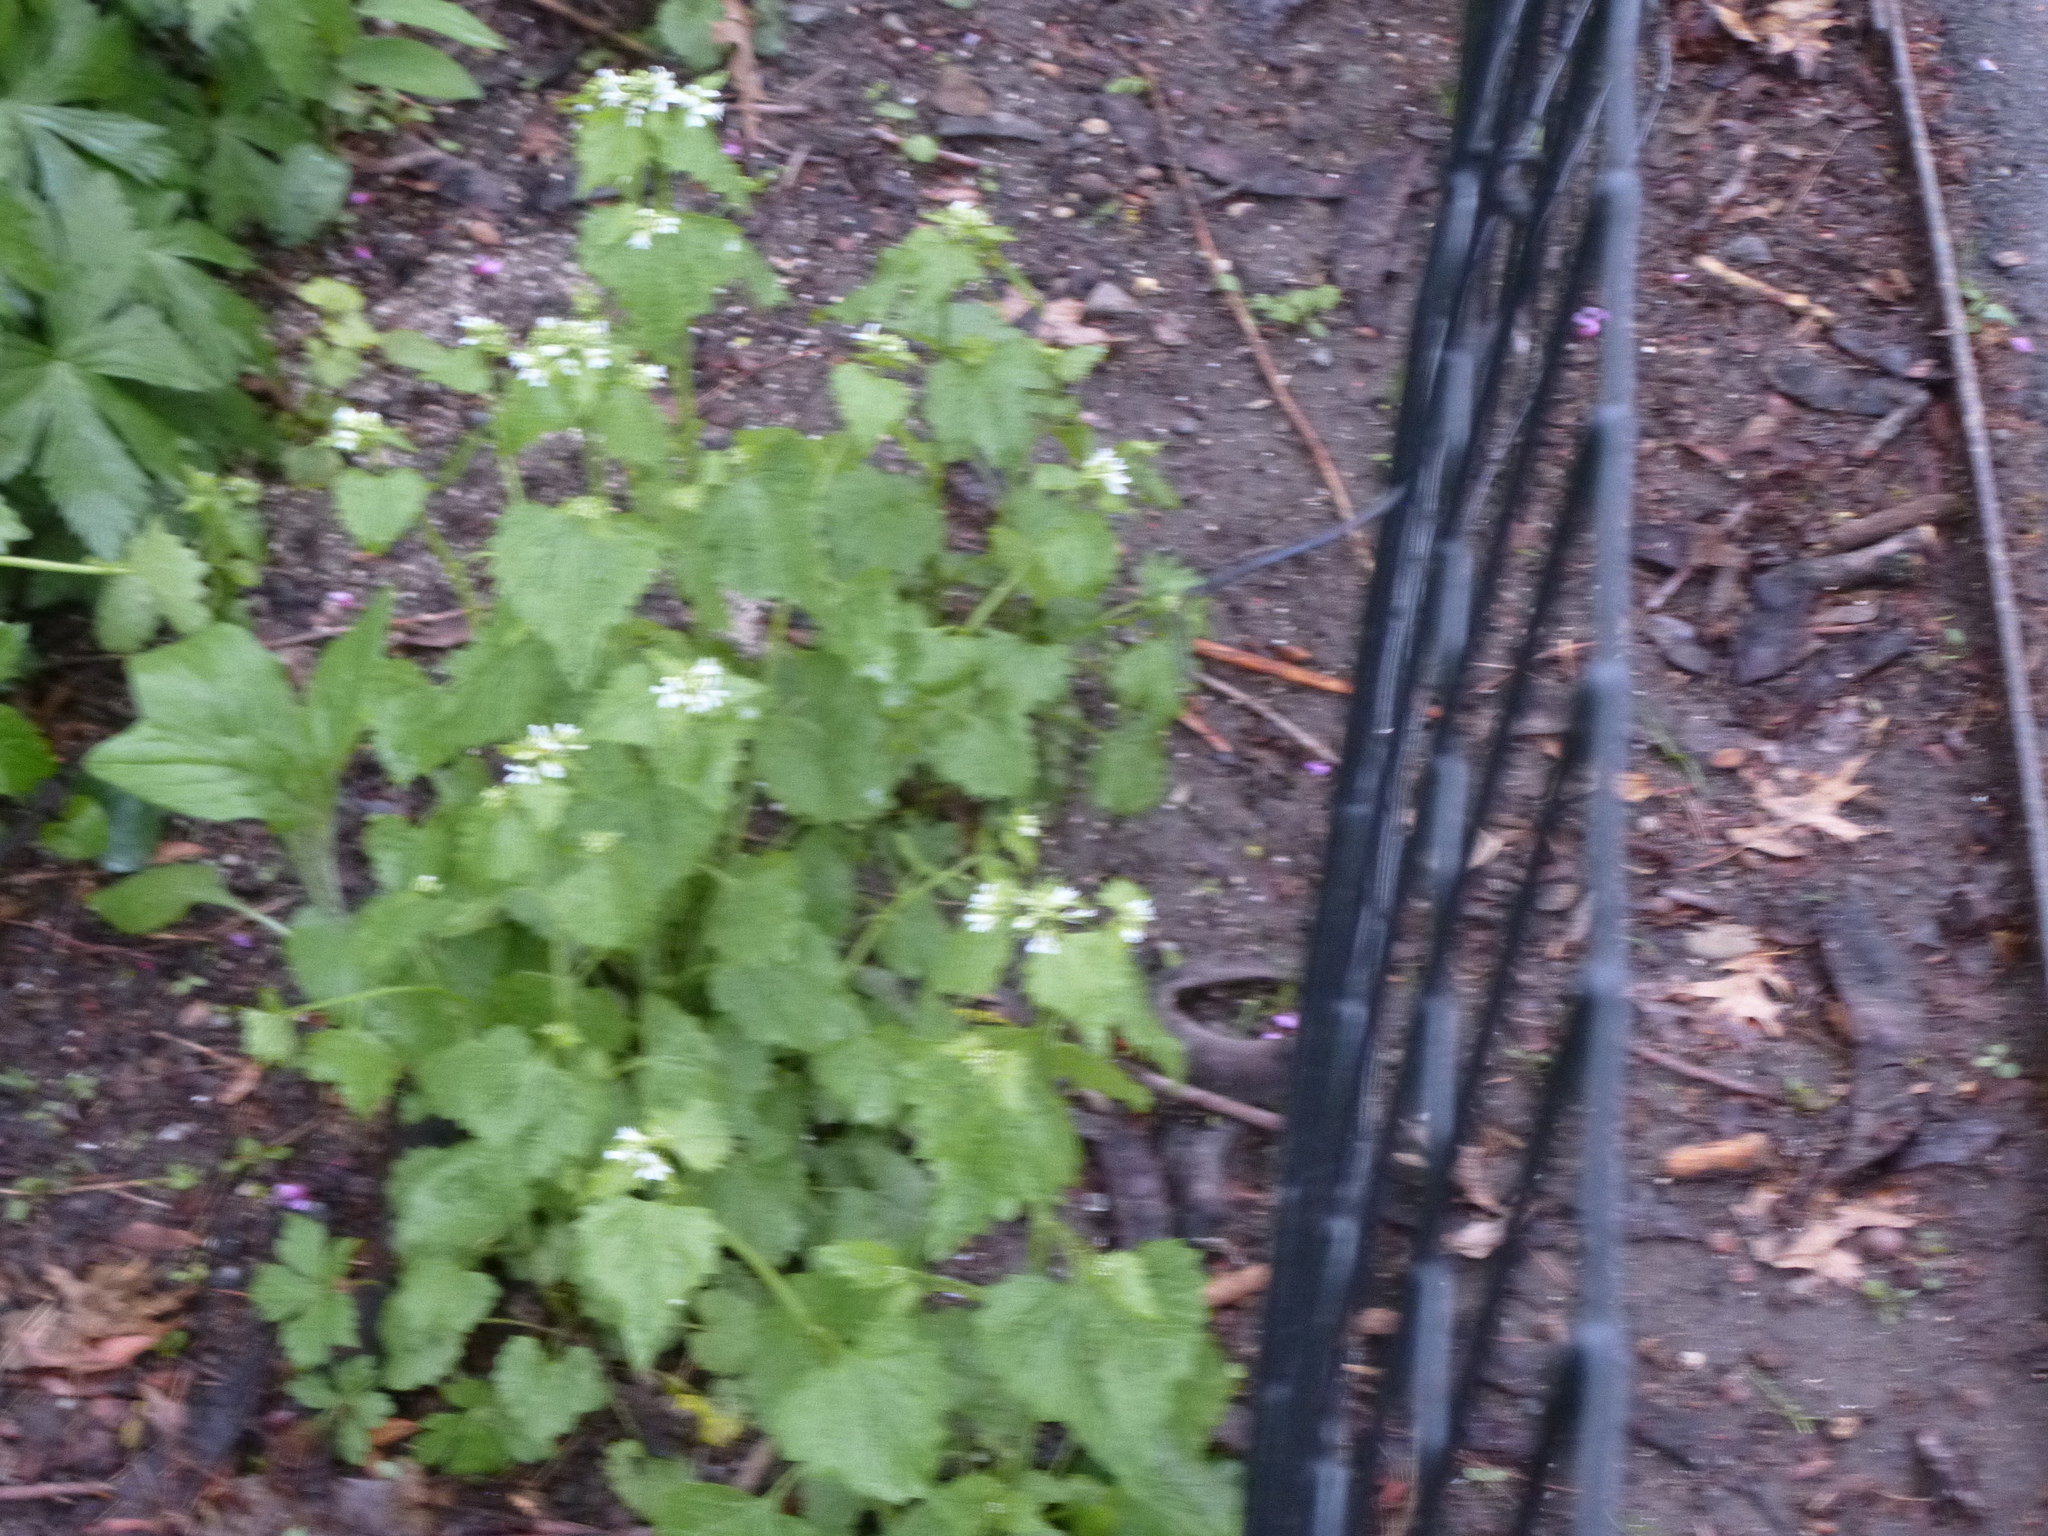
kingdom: Plantae
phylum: Tracheophyta
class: Magnoliopsida
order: Brassicales
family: Brassicaceae
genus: Alliaria
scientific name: Alliaria petiolata
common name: Garlic mustard
